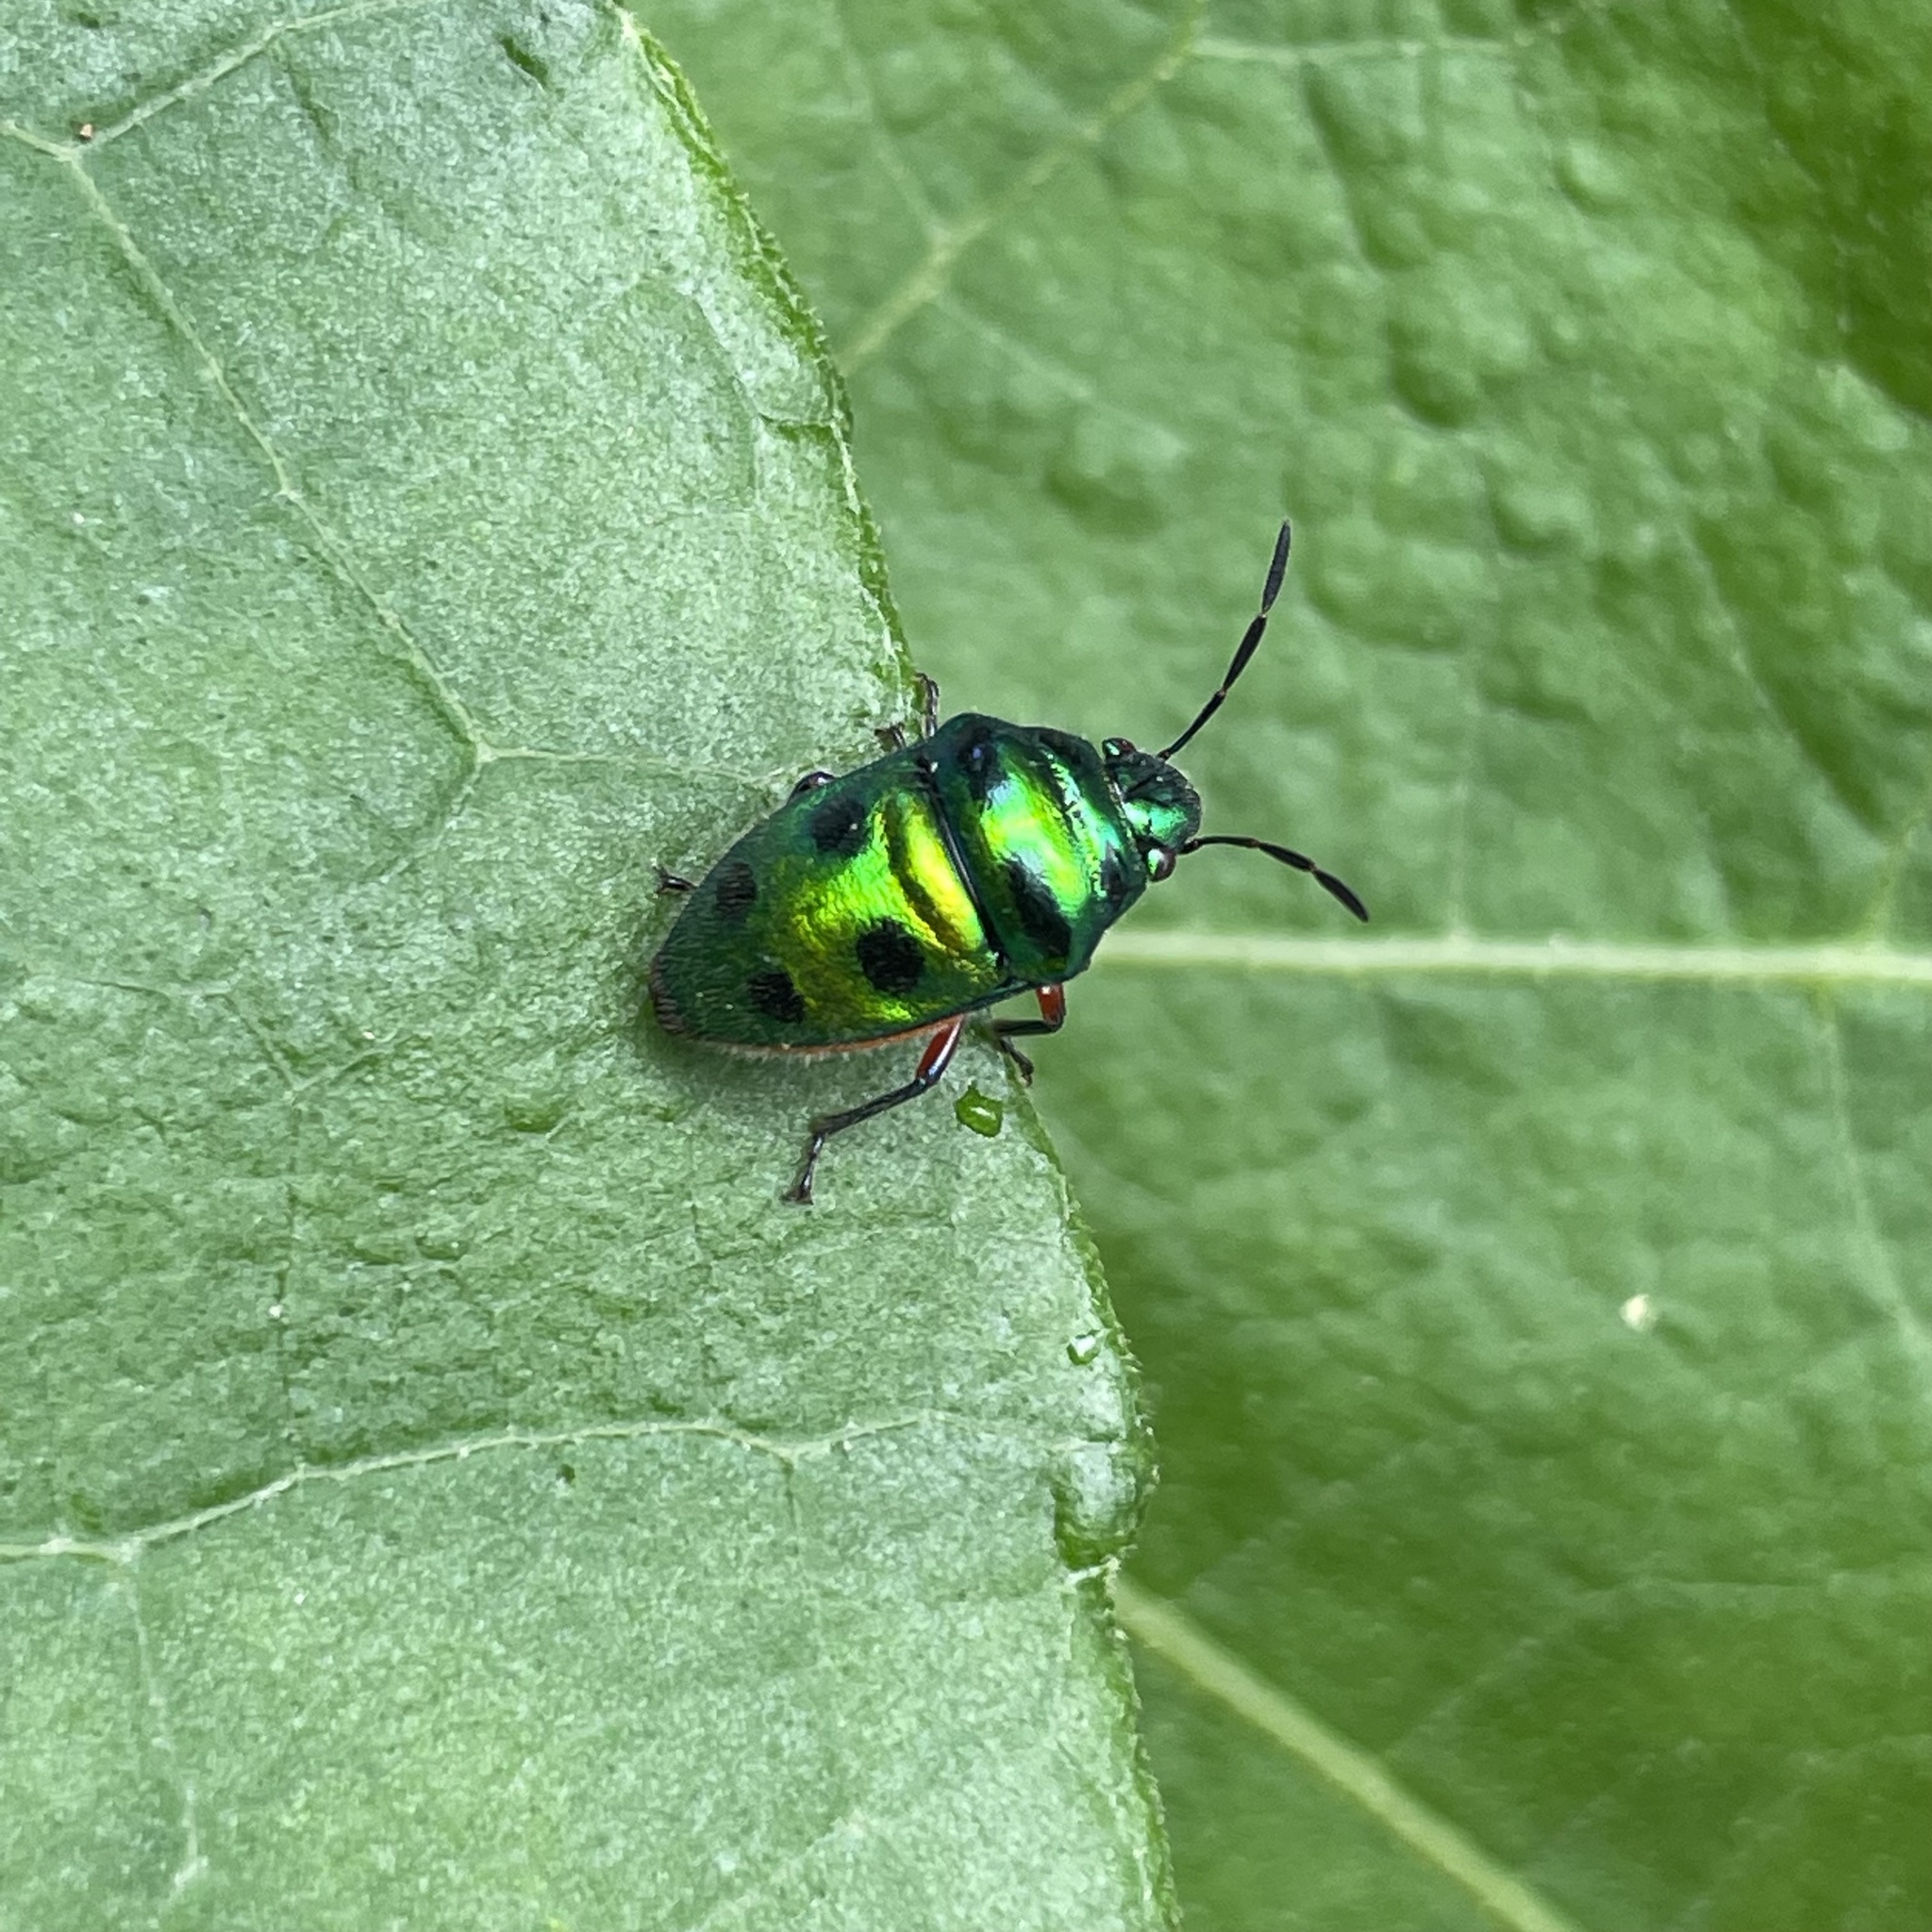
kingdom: Animalia
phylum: Arthropoda
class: Insecta
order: Hemiptera
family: Scutelleridae
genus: Lampromicra
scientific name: Lampromicra miyakona
